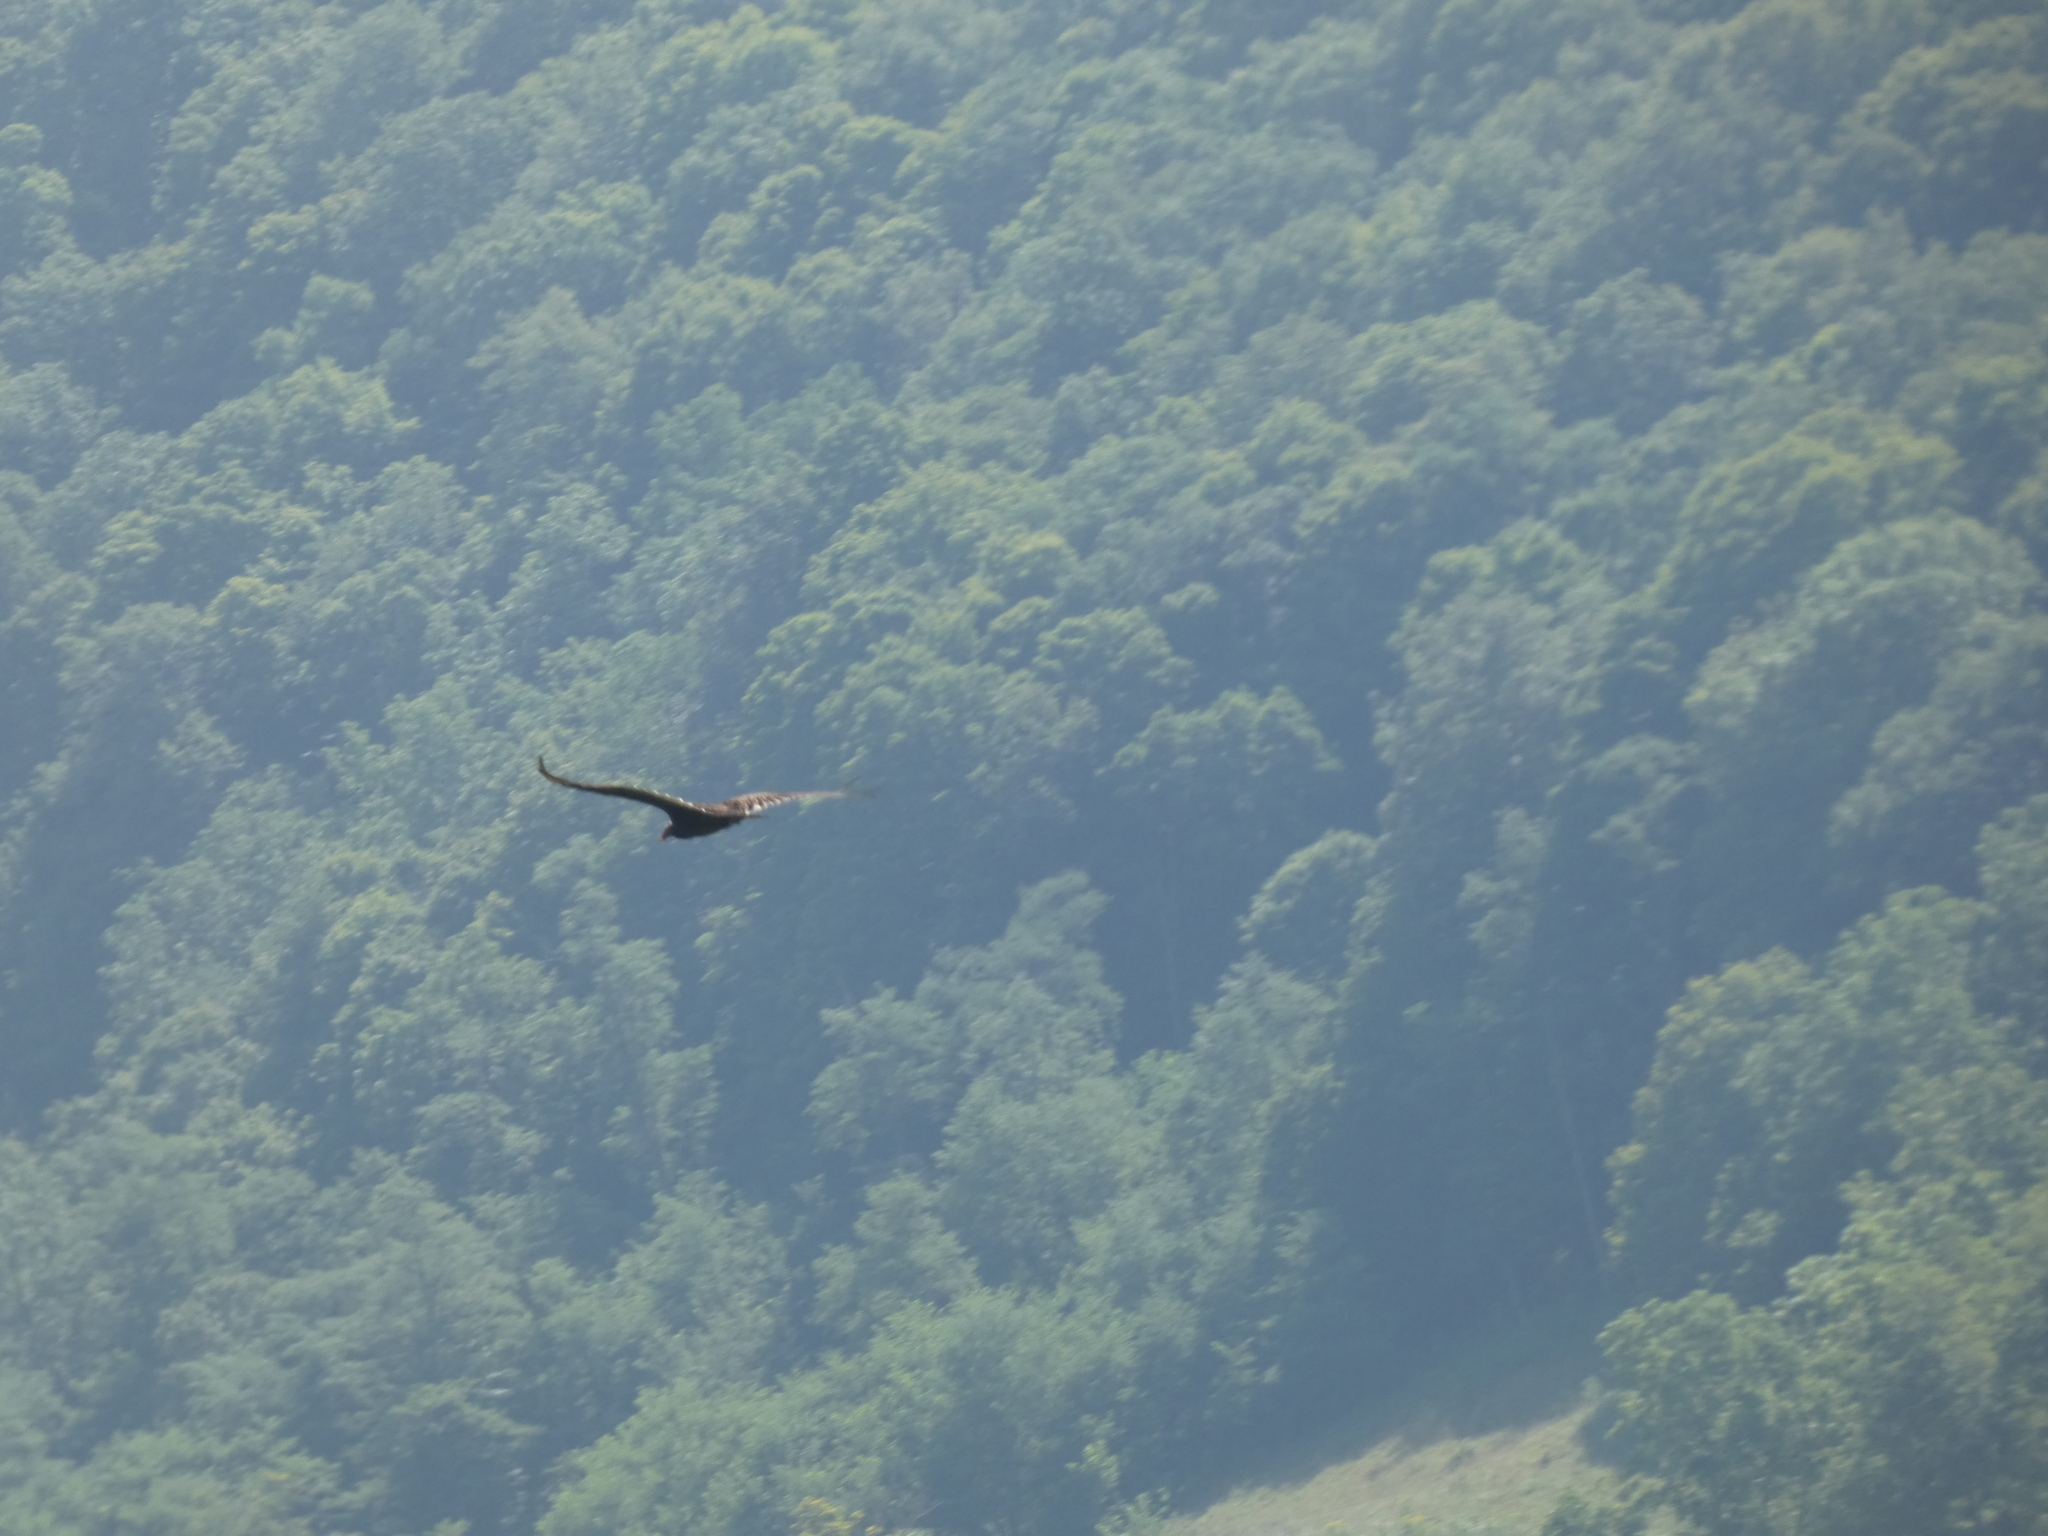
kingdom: Animalia
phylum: Chordata
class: Aves
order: Accipitriformes
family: Cathartidae
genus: Cathartes
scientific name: Cathartes aura
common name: Turkey vulture
